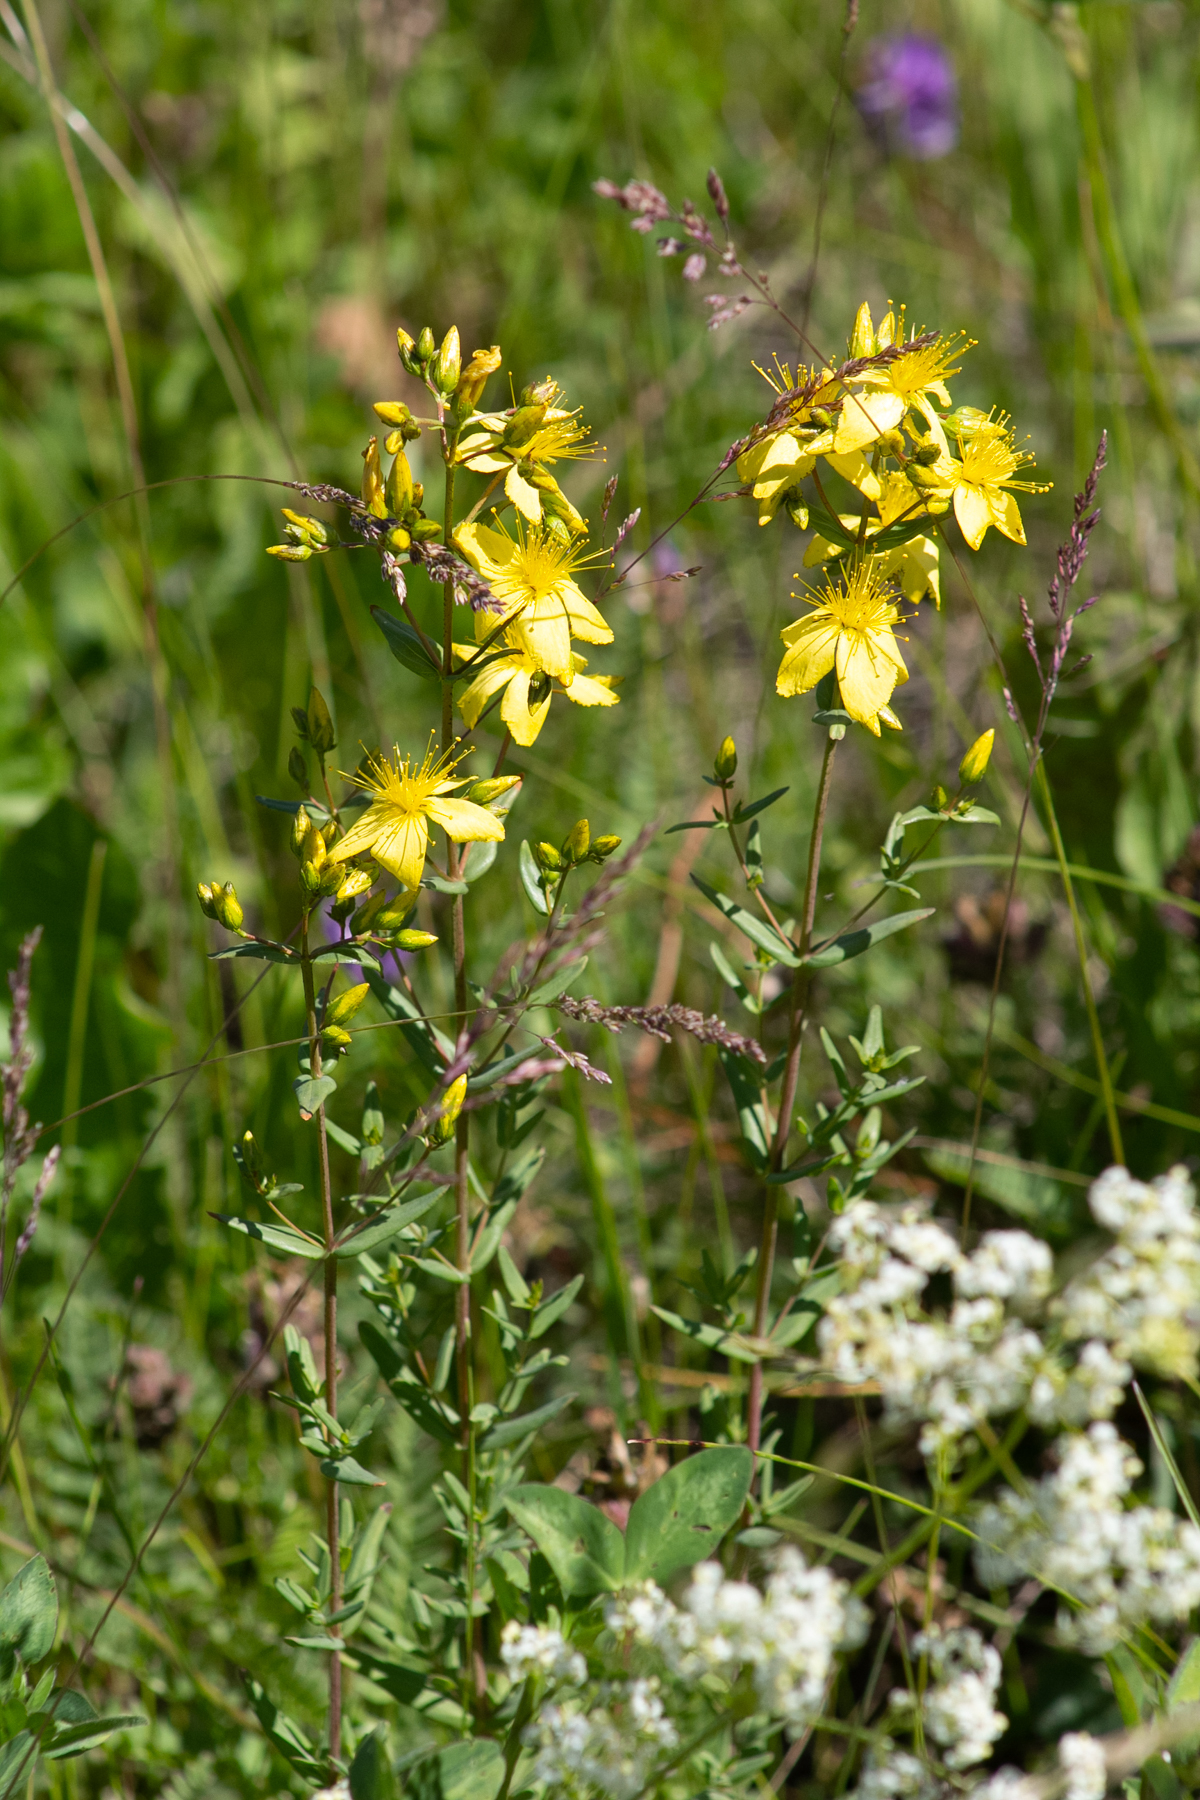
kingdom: Plantae
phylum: Tracheophyta
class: Magnoliopsida
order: Malpighiales
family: Hypericaceae
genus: Hypericum
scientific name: Hypericum elegans
